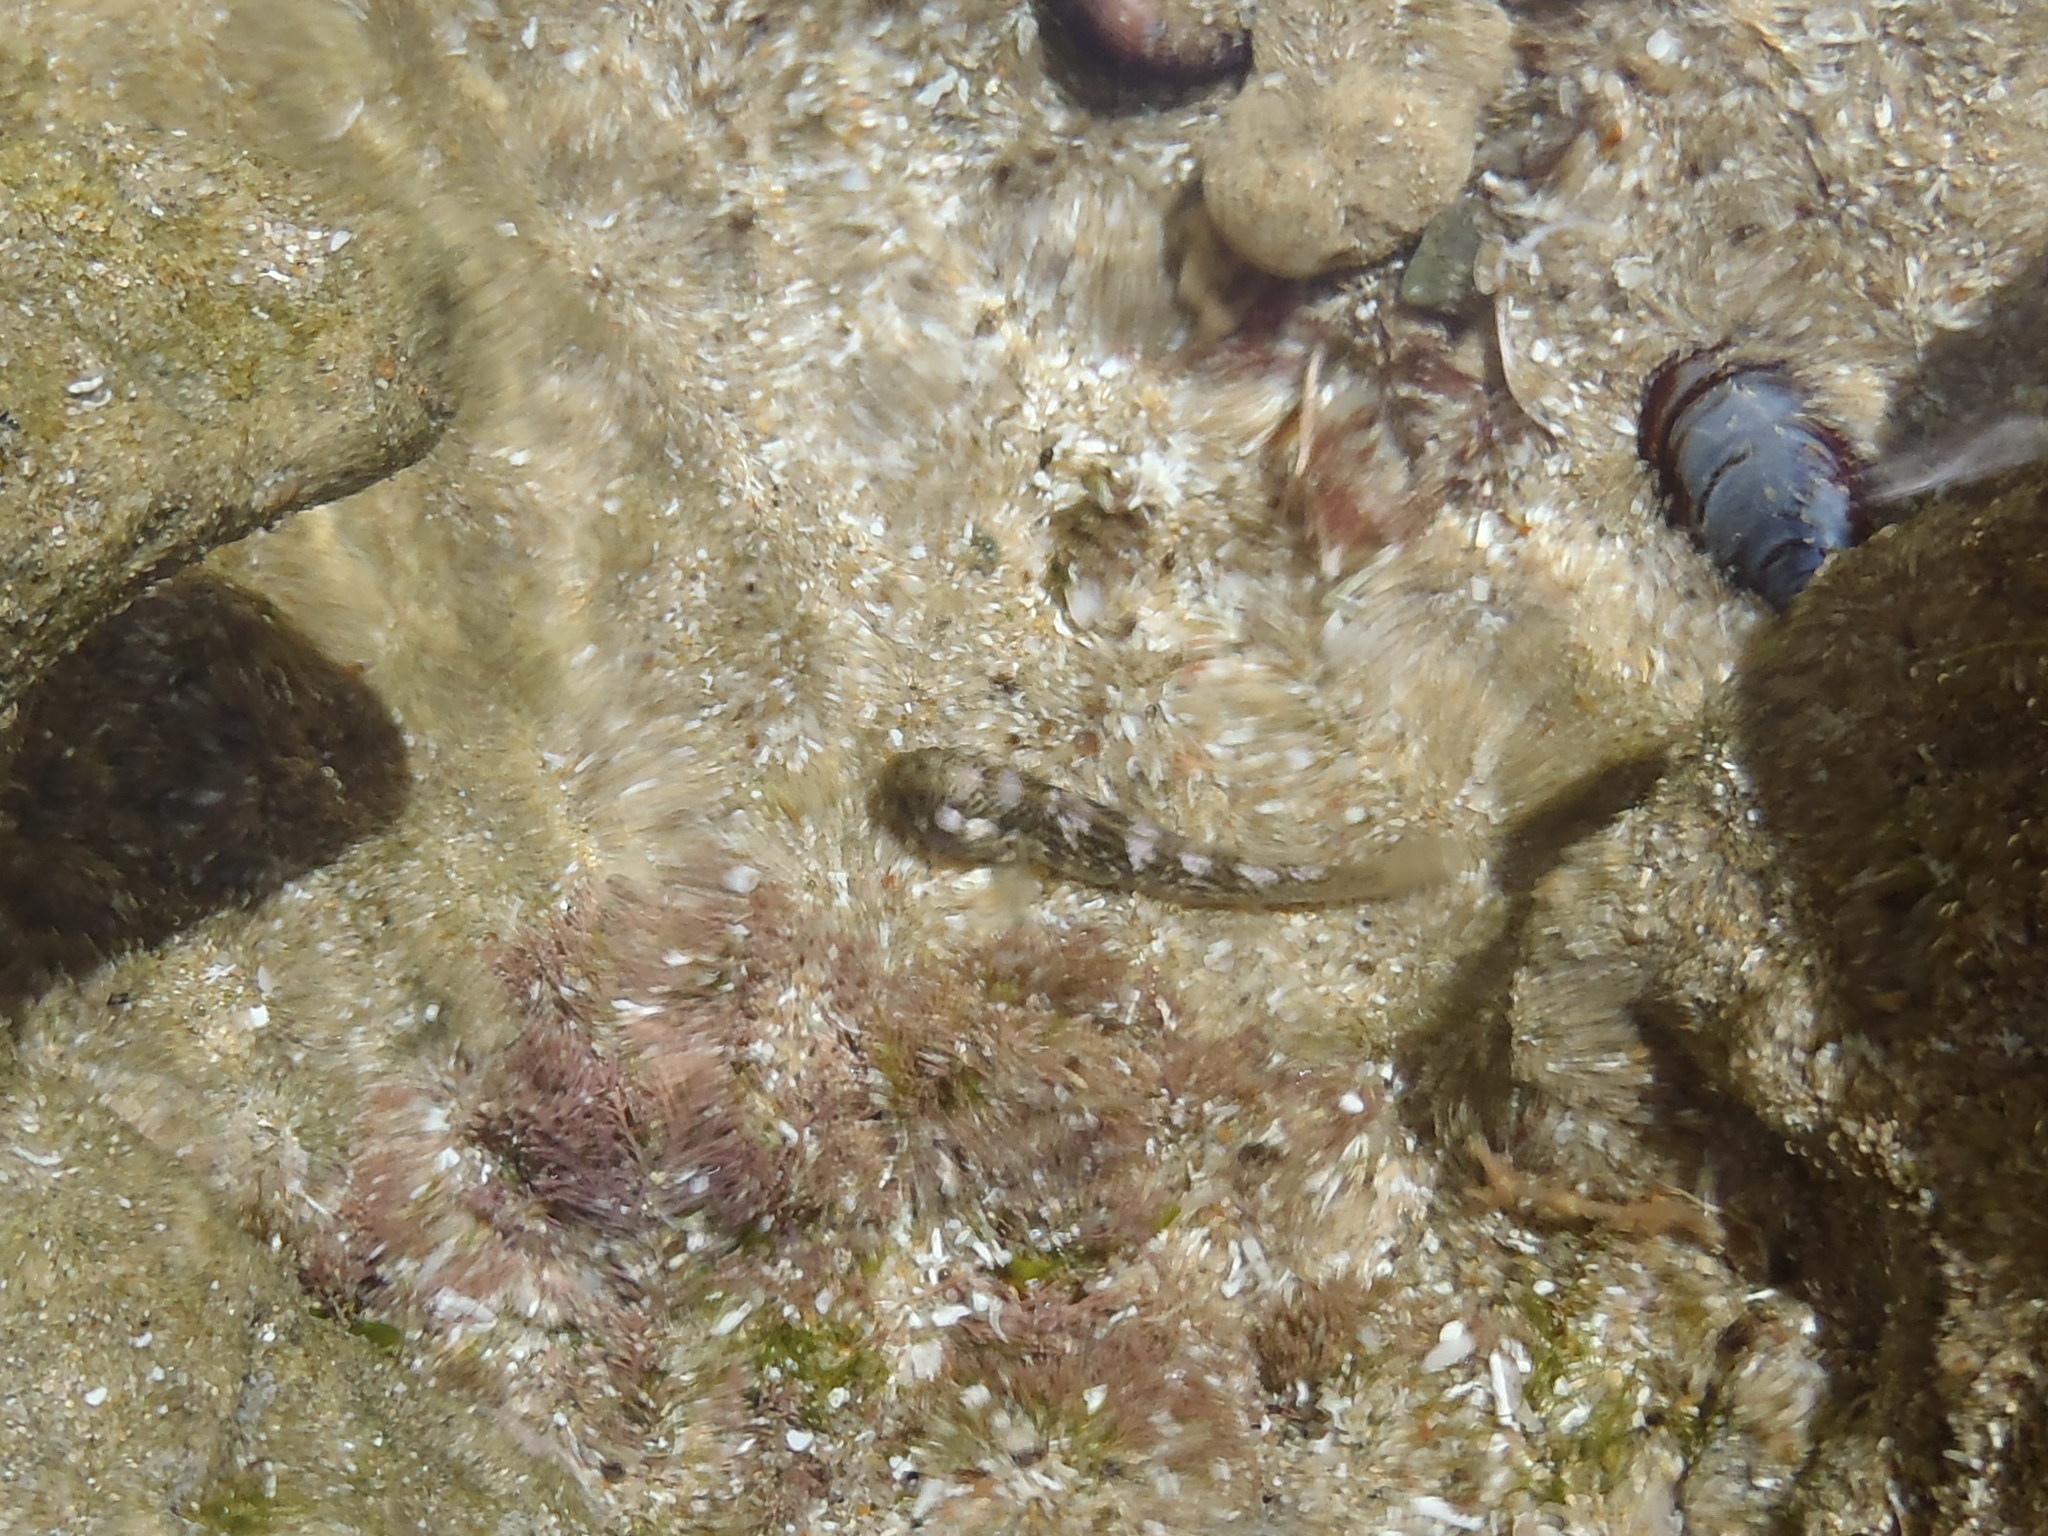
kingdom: Animalia
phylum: Chordata
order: Perciformes
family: Gobiidae
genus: Caffrogobius
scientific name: Caffrogobius caffer
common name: Banded goby
